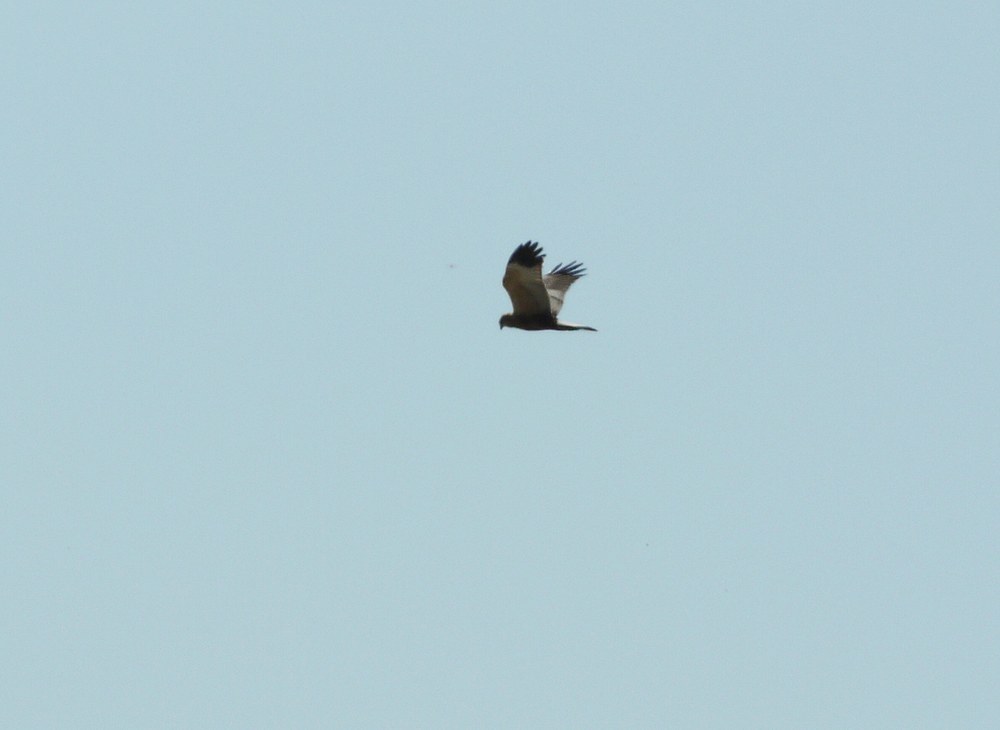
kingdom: Animalia
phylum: Chordata
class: Aves
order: Accipitriformes
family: Accipitridae
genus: Circus
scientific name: Circus aeruginosus
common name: Western marsh harrier
